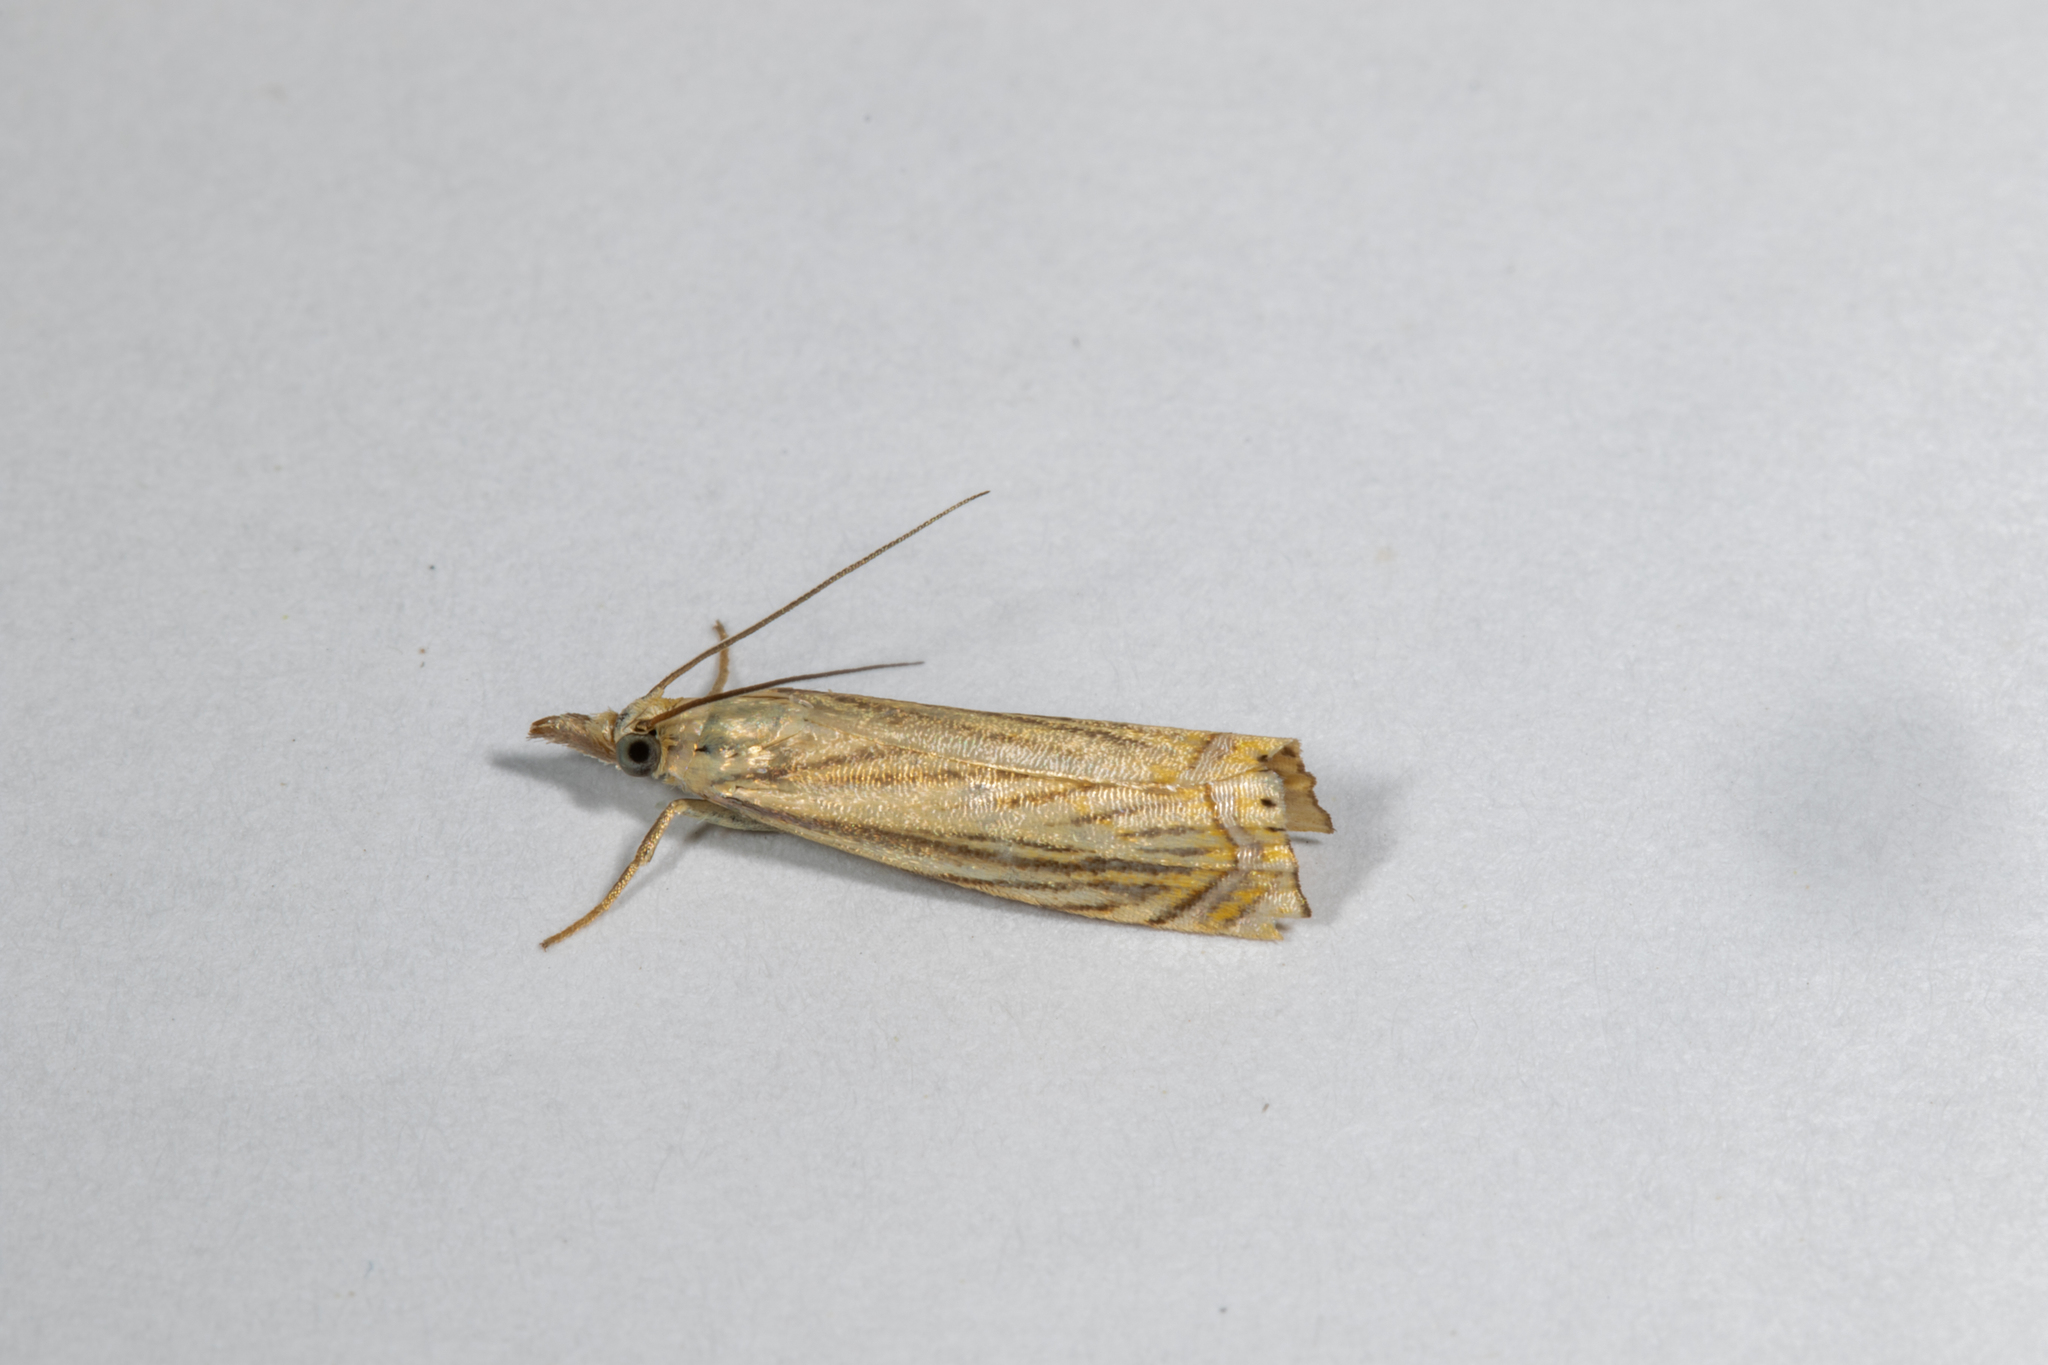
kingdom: Animalia
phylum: Arthropoda
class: Insecta
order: Lepidoptera
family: Crambidae
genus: Chrysoteuchia
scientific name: Chrysoteuchia topiarius
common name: Topiary grass-veneer
